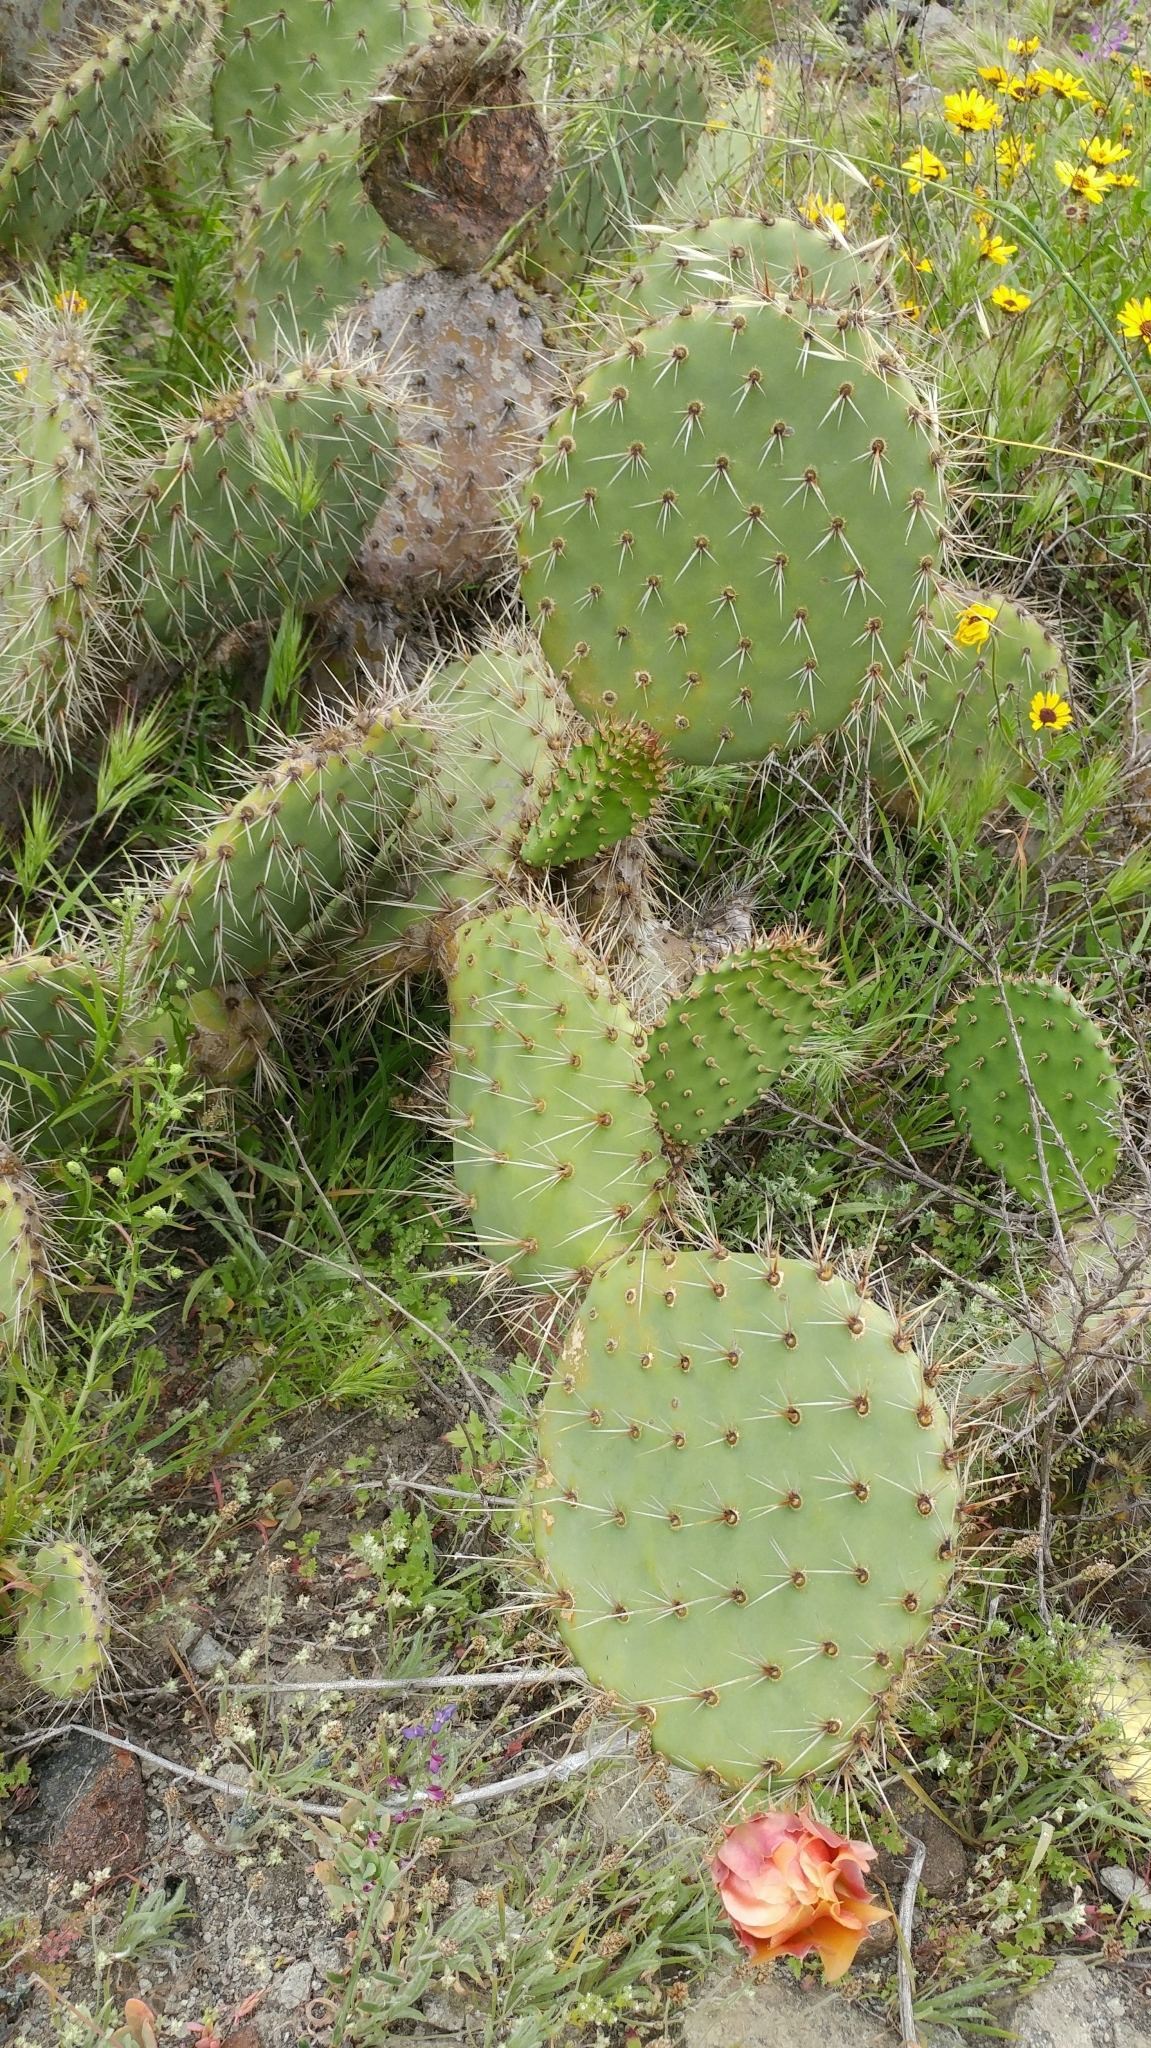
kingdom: Plantae
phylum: Tracheophyta
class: Magnoliopsida
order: Caryophyllales
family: Cactaceae
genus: Opuntia
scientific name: Opuntia littoralis
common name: Coastal prickly-pear
